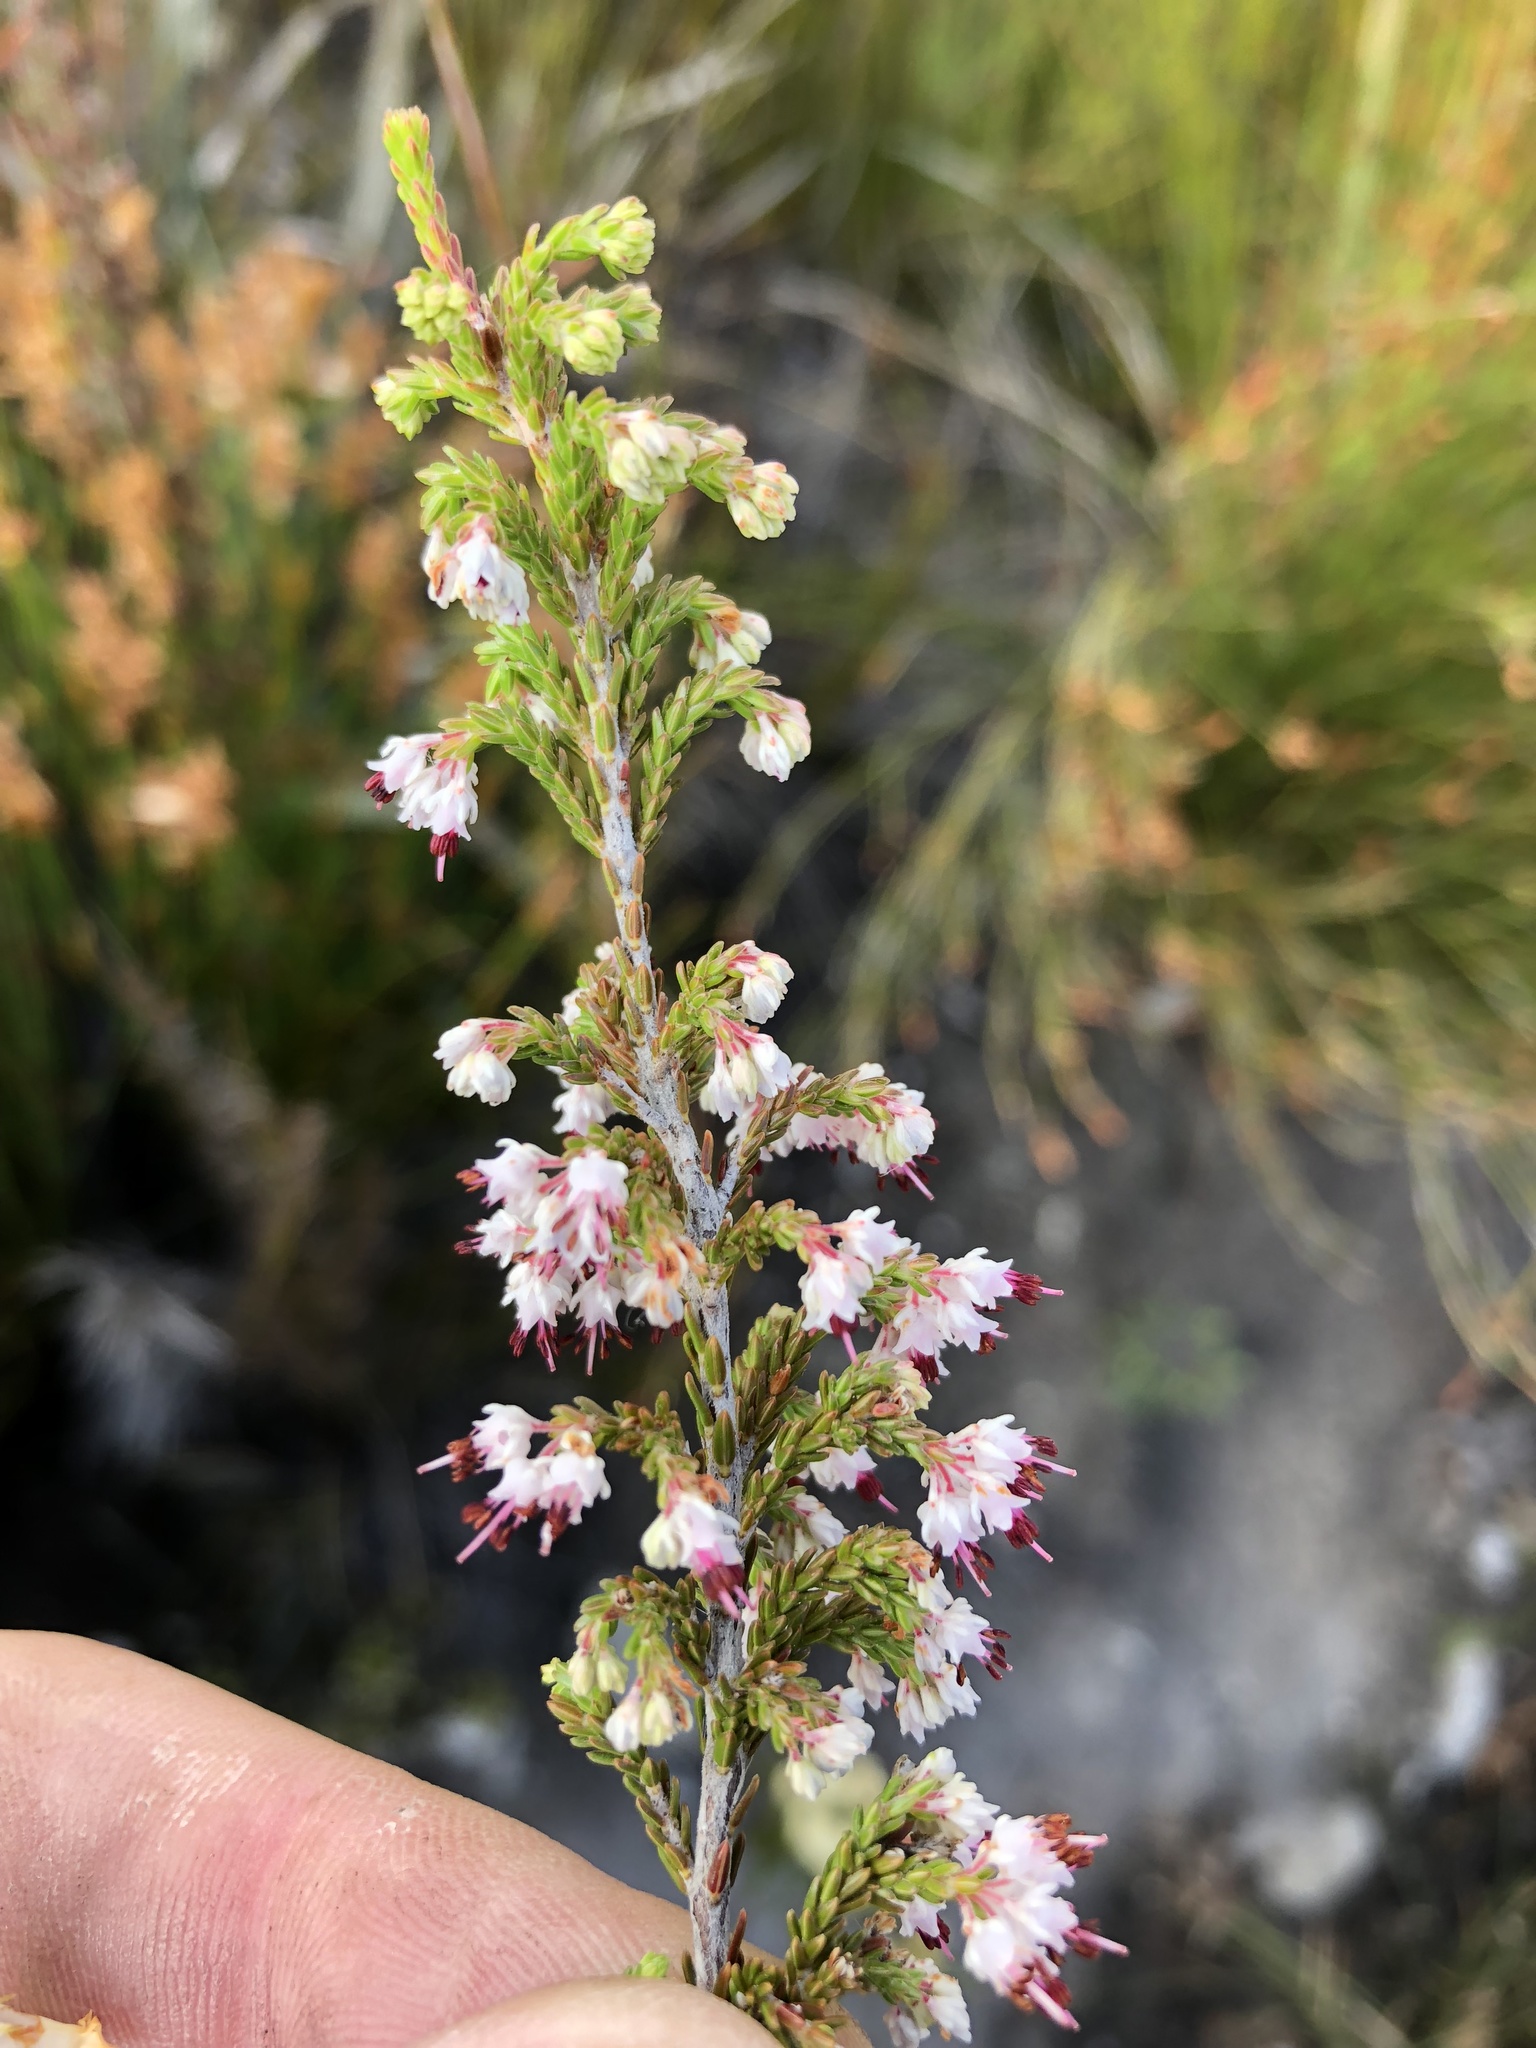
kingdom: Plantae
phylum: Tracheophyta
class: Magnoliopsida
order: Ericales
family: Ericaceae
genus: Erica
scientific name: Erica demissa
